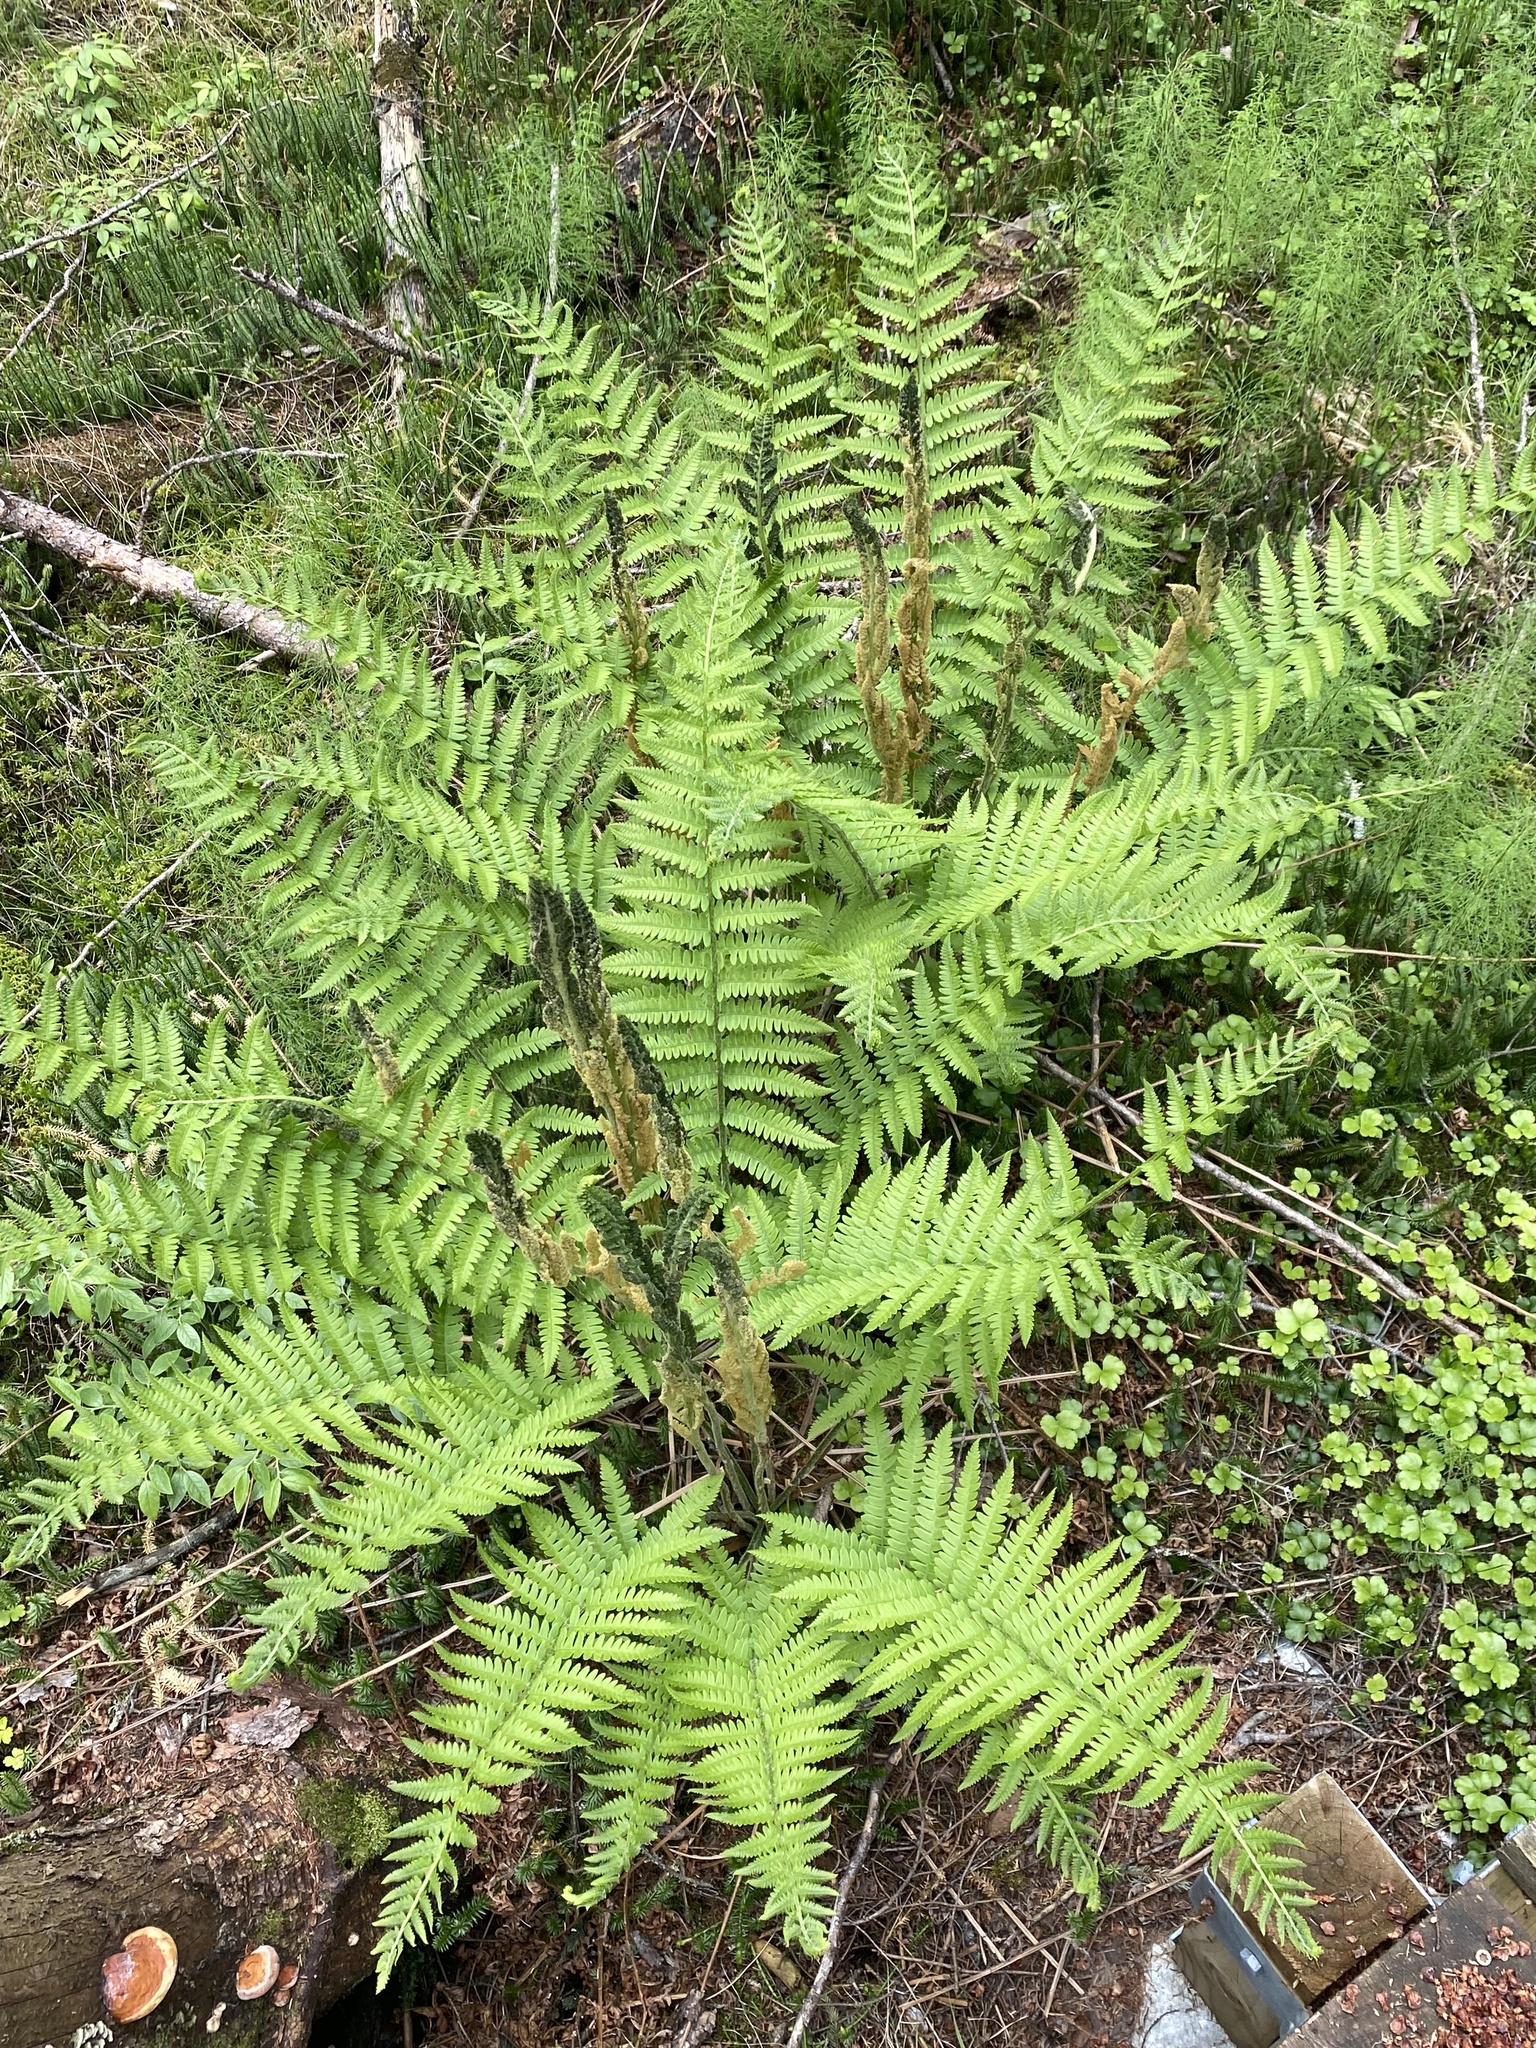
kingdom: Plantae
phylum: Tracheophyta
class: Polypodiopsida
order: Osmundales
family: Osmundaceae
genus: Osmundastrum
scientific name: Osmundastrum cinnamomeum
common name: Cinnamon fern
